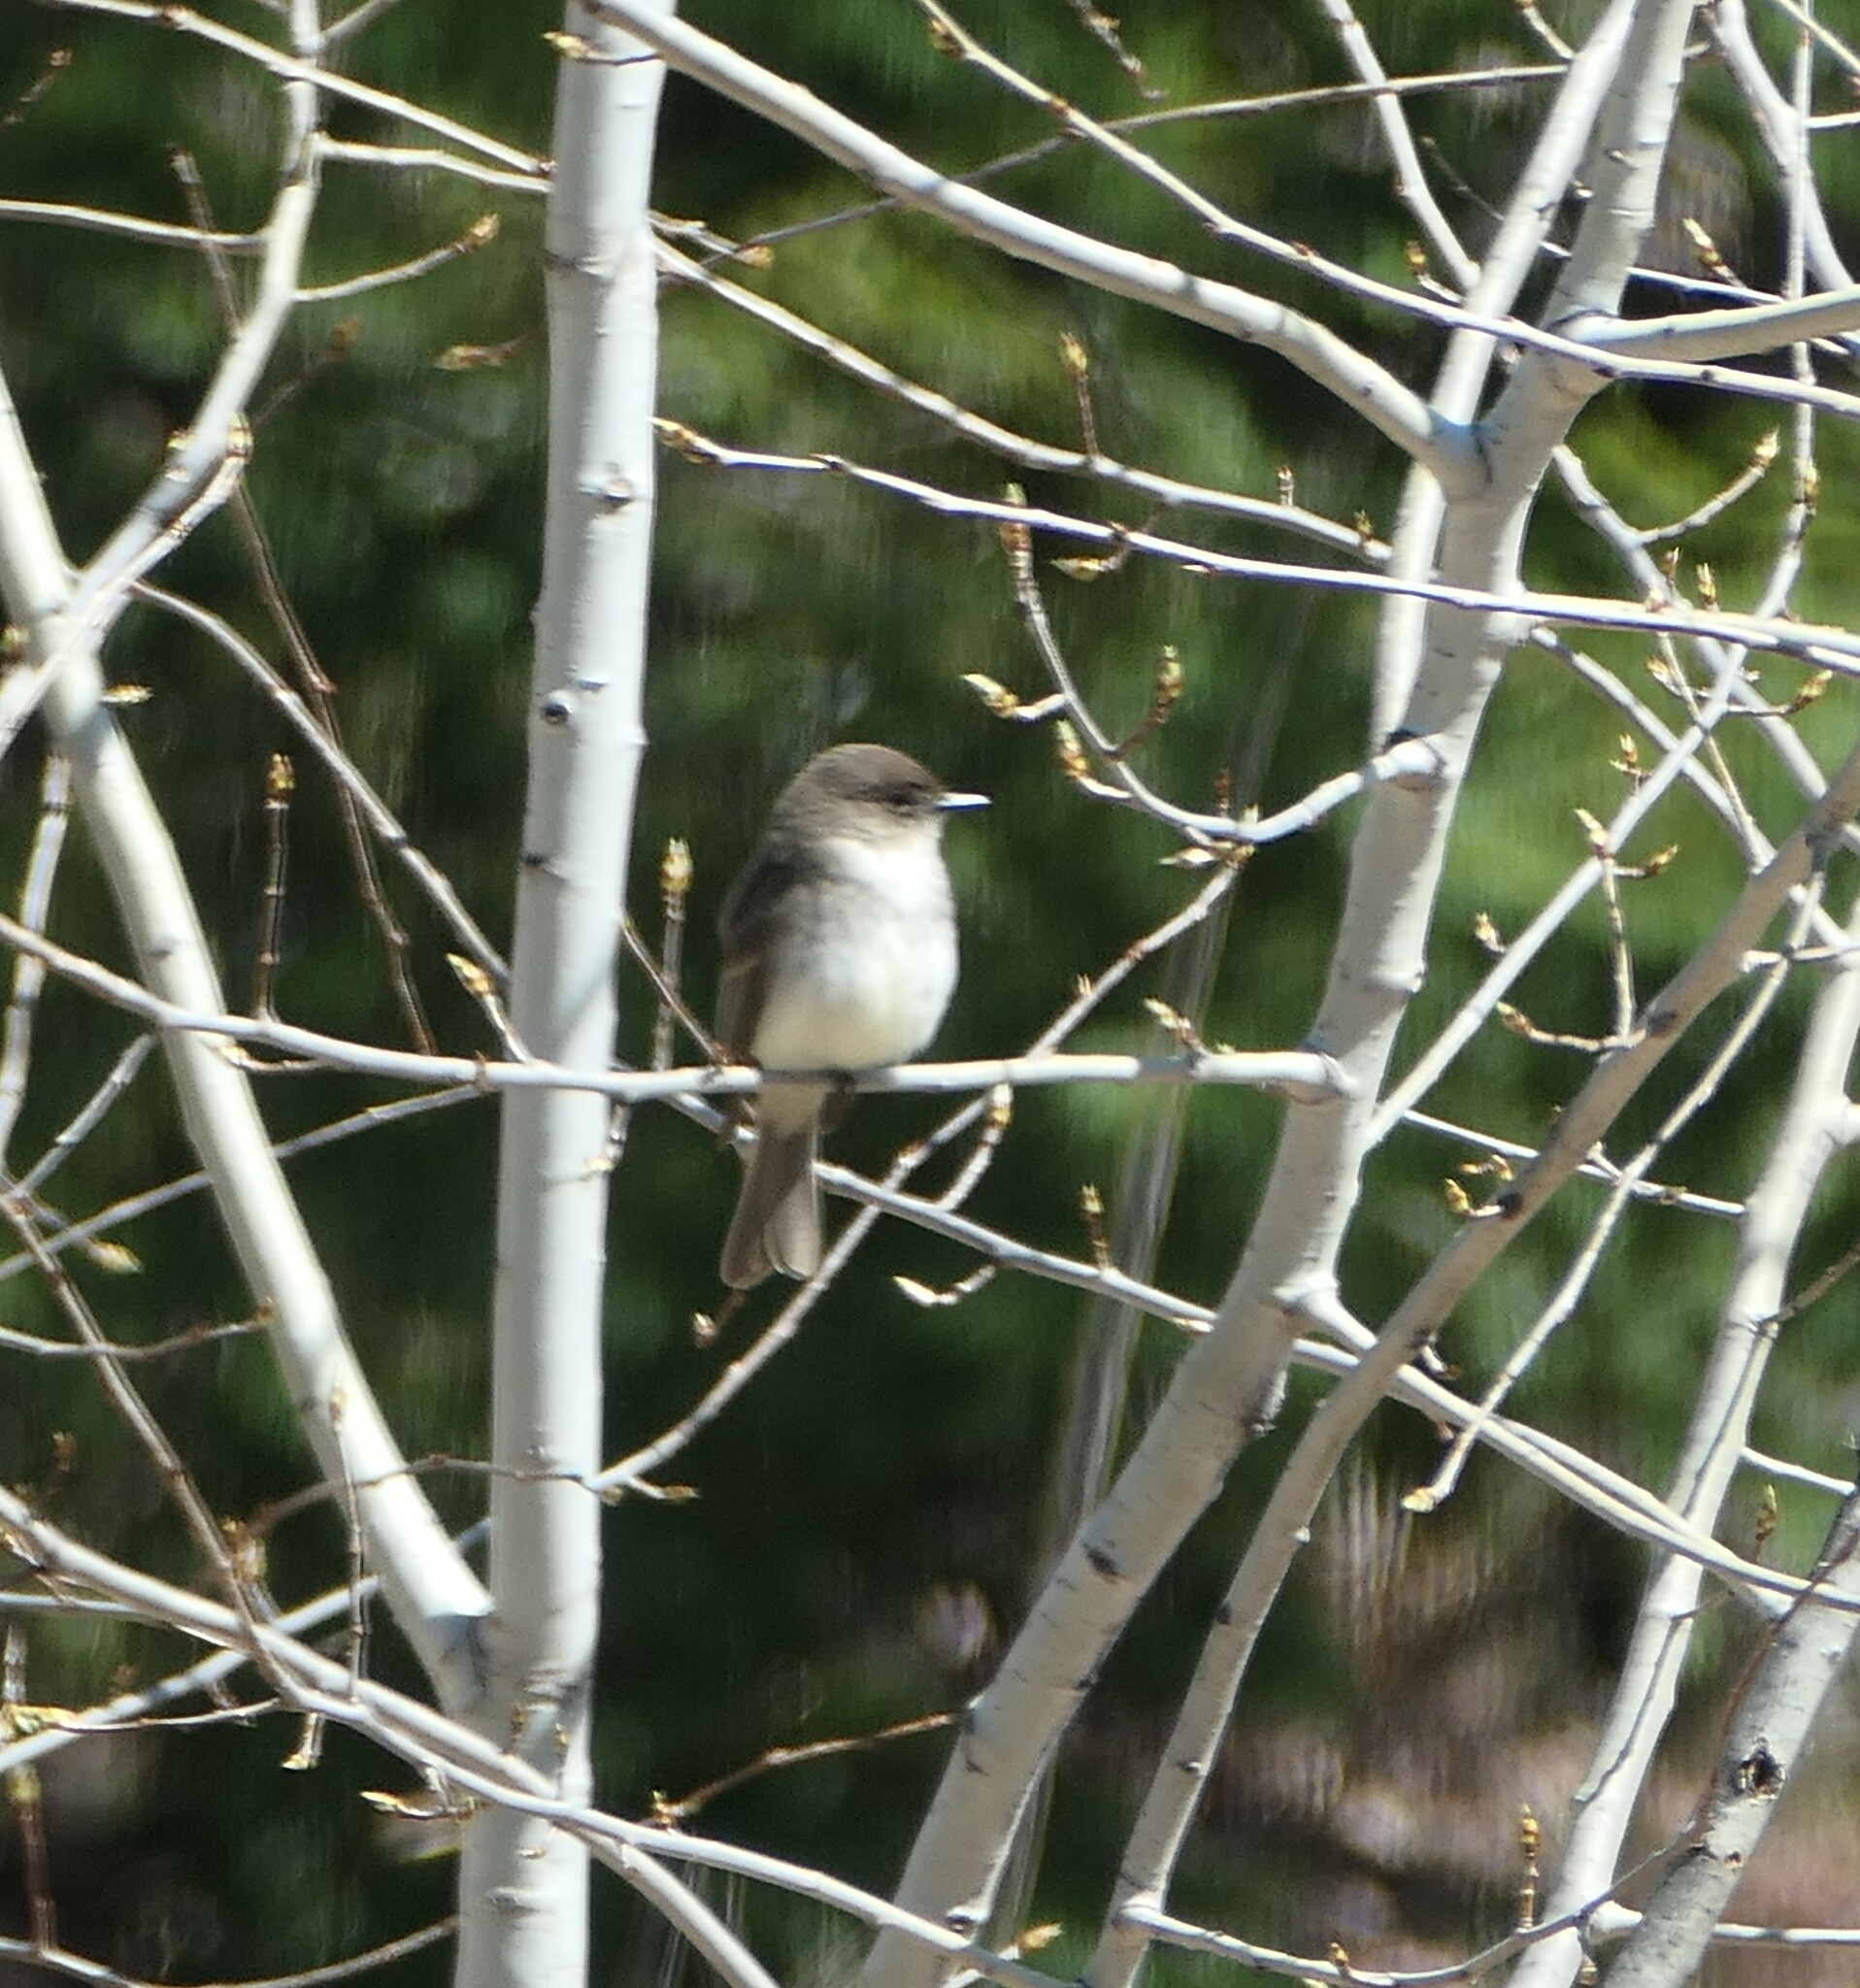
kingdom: Animalia
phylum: Chordata
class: Aves
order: Passeriformes
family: Tyrannidae
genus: Sayornis
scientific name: Sayornis phoebe
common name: Eastern phoebe
